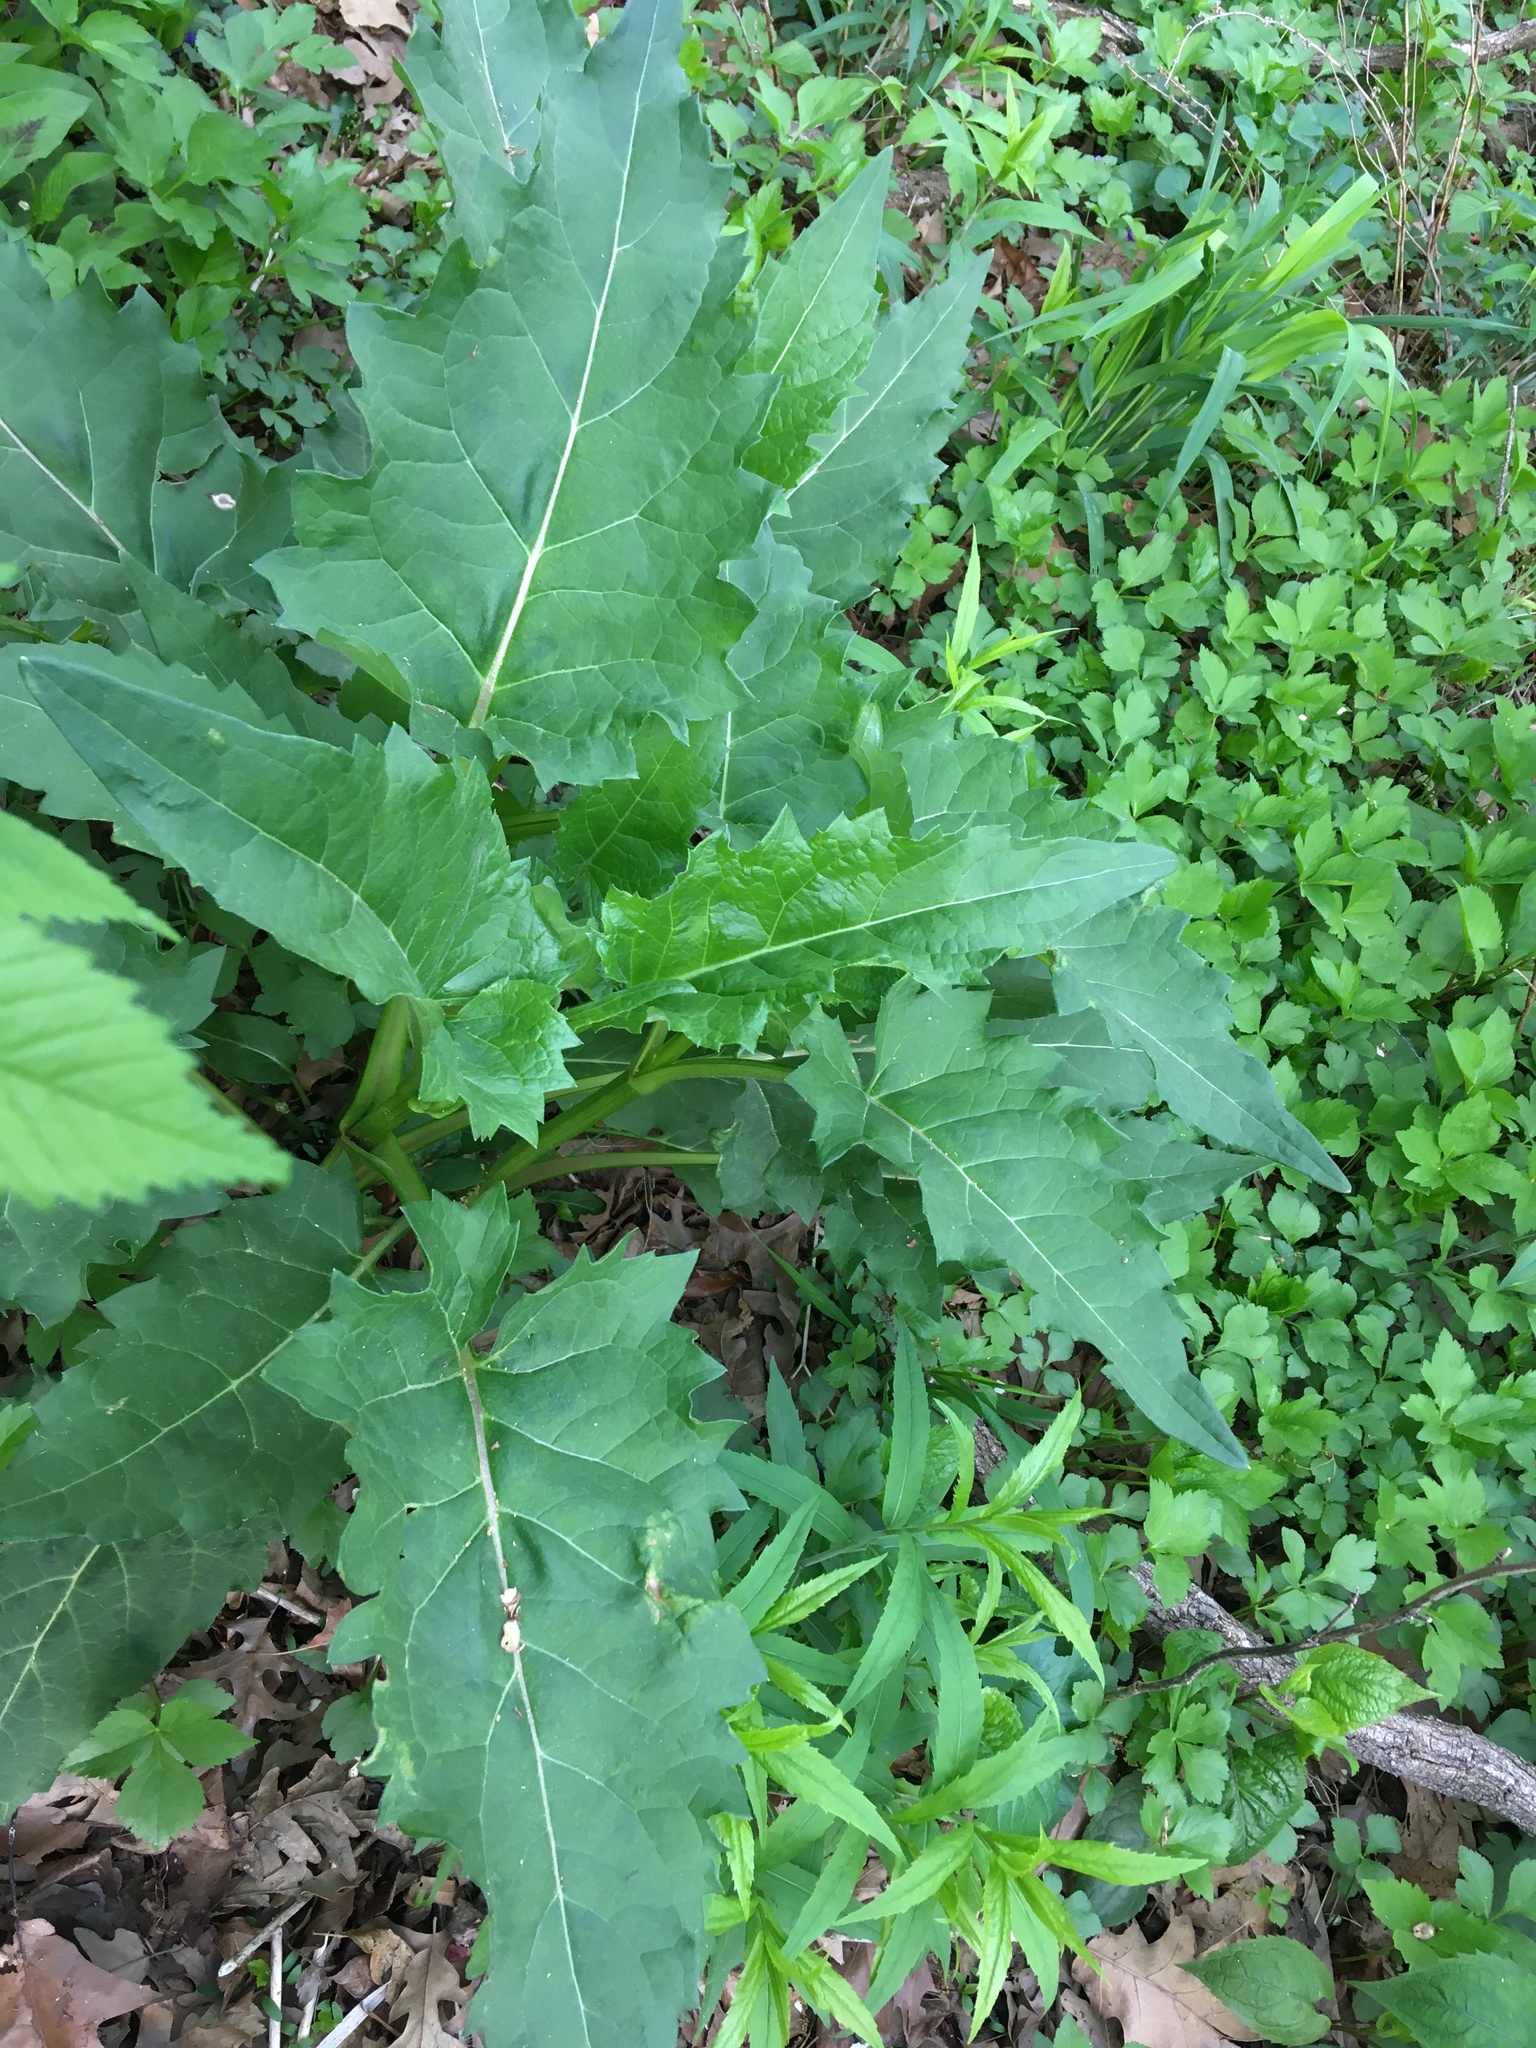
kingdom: Plantae
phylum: Tracheophyta
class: Magnoliopsida
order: Asterales
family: Asteraceae
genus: Silphium
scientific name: Silphium perfoliatum
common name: Cup-plant
